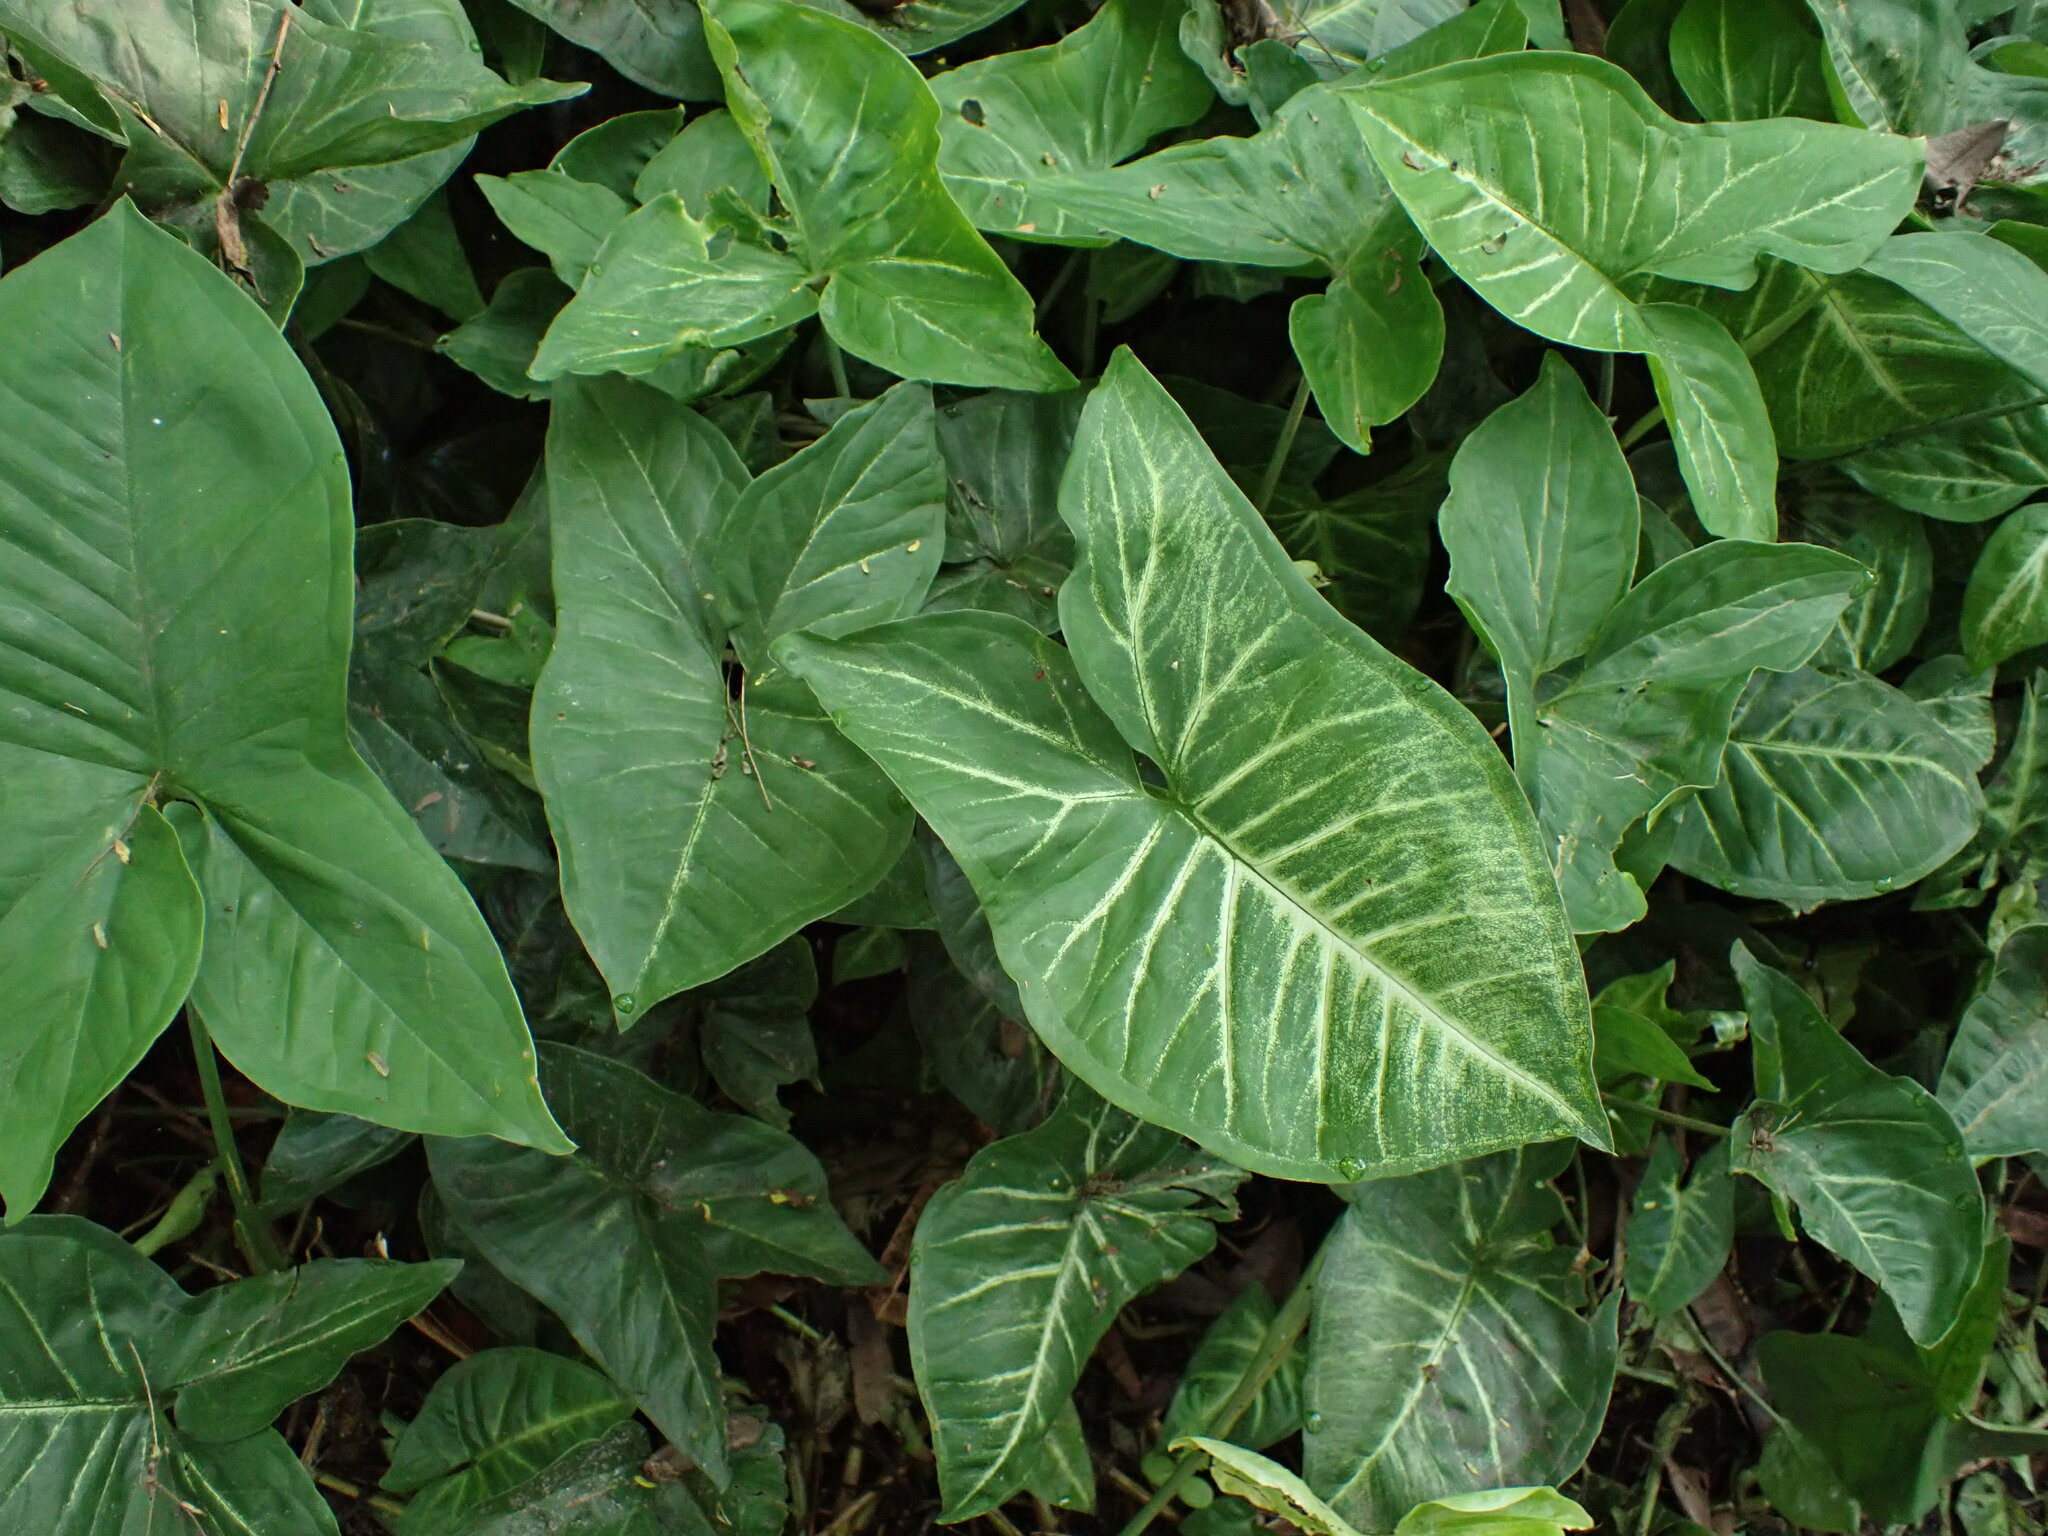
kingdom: Plantae
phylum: Tracheophyta
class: Liliopsida
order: Alismatales
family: Araceae
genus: Syngonium
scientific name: Syngonium podophyllum
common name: American evergreen
